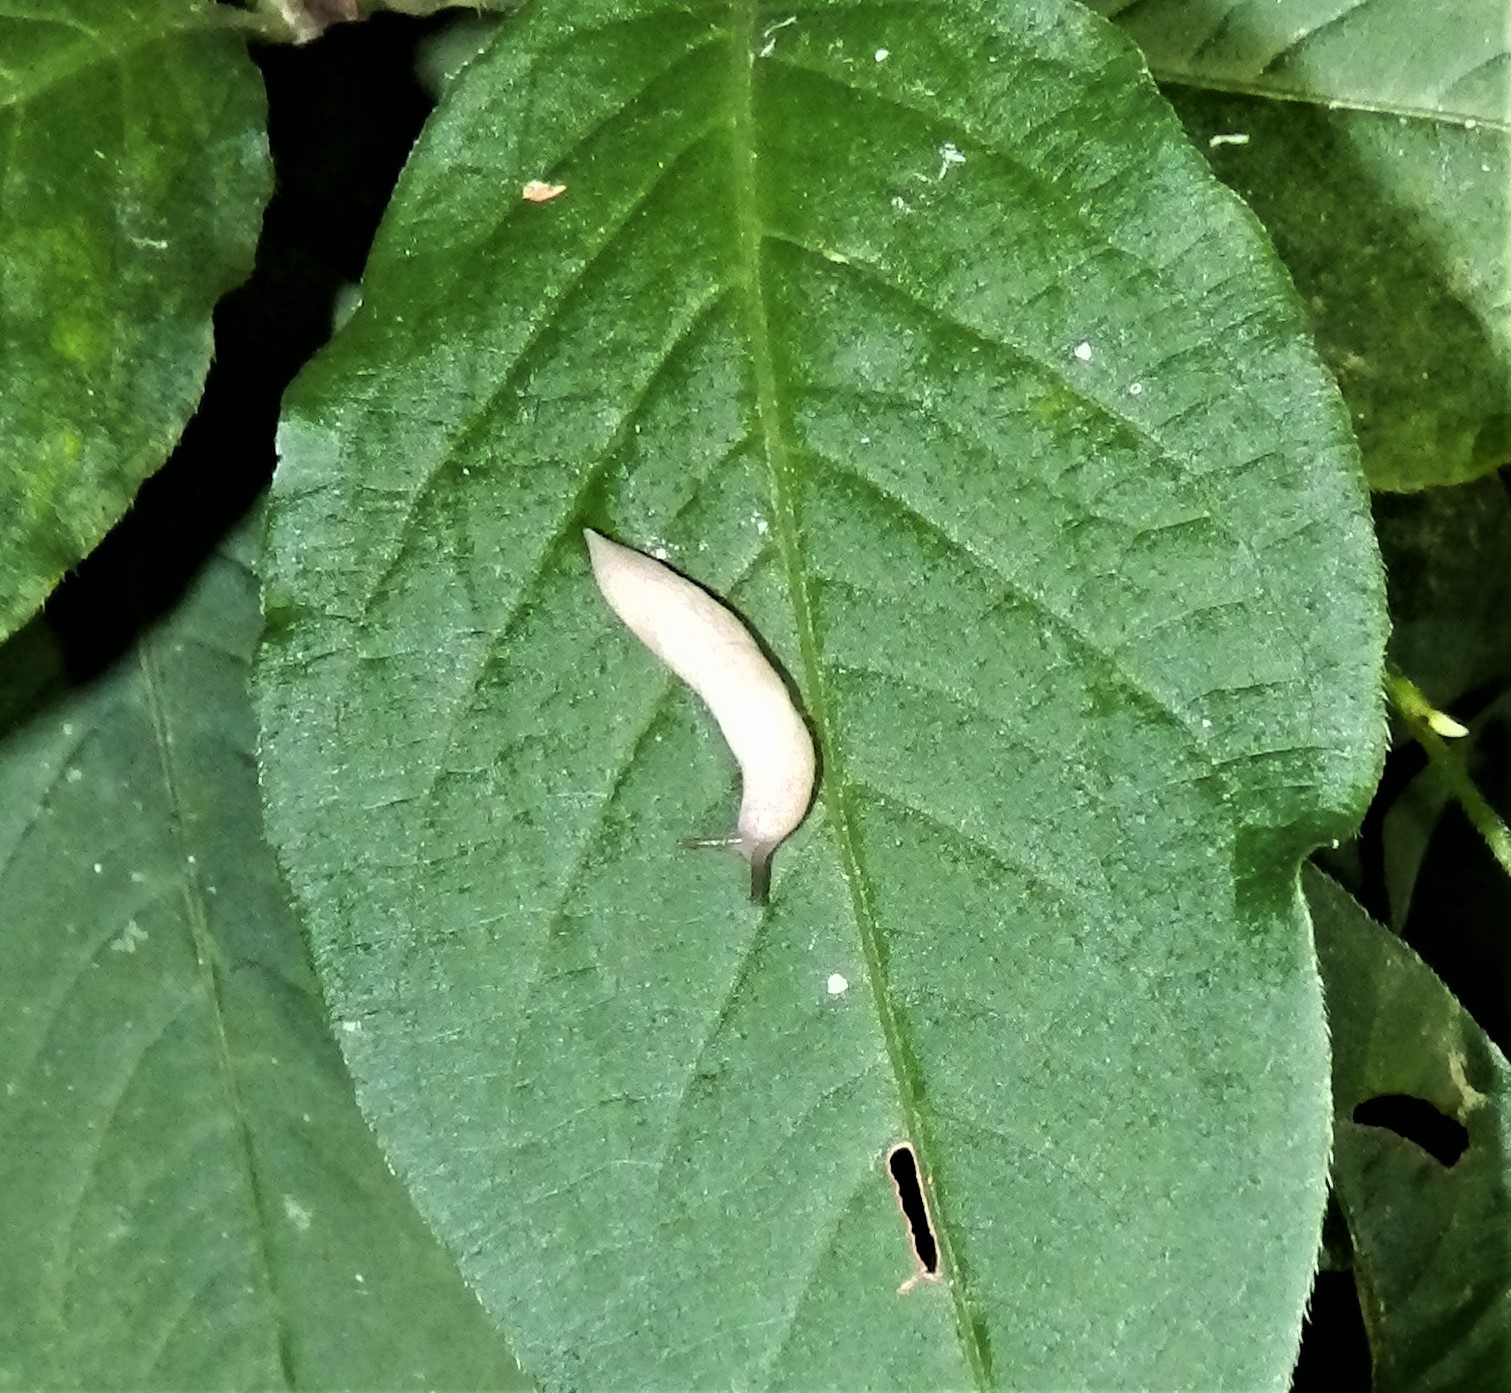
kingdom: Animalia
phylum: Mollusca
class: Gastropoda
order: Stylommatophora
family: Agriolimacidae
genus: Deroceras
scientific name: Deroceras reticulatum
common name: Gray field slug
